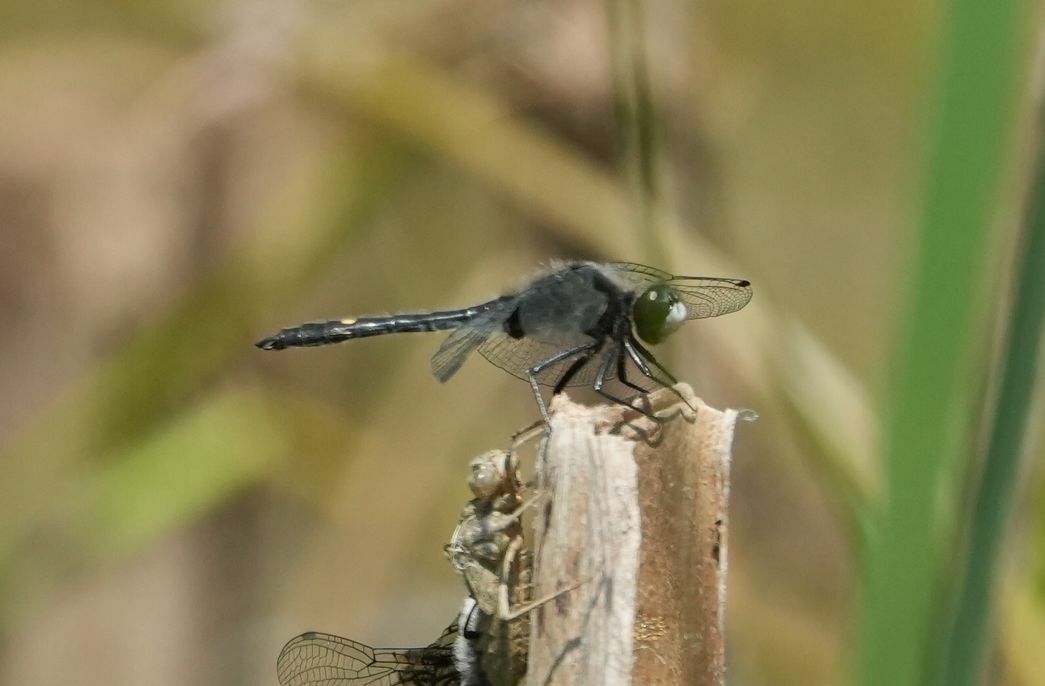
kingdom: Animalia
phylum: Arthropoda
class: Insecta
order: Odonata
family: Libellulidae
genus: Leucorrhinia
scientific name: Leucorrhinia intacta
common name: Dot-tailed whiteface
